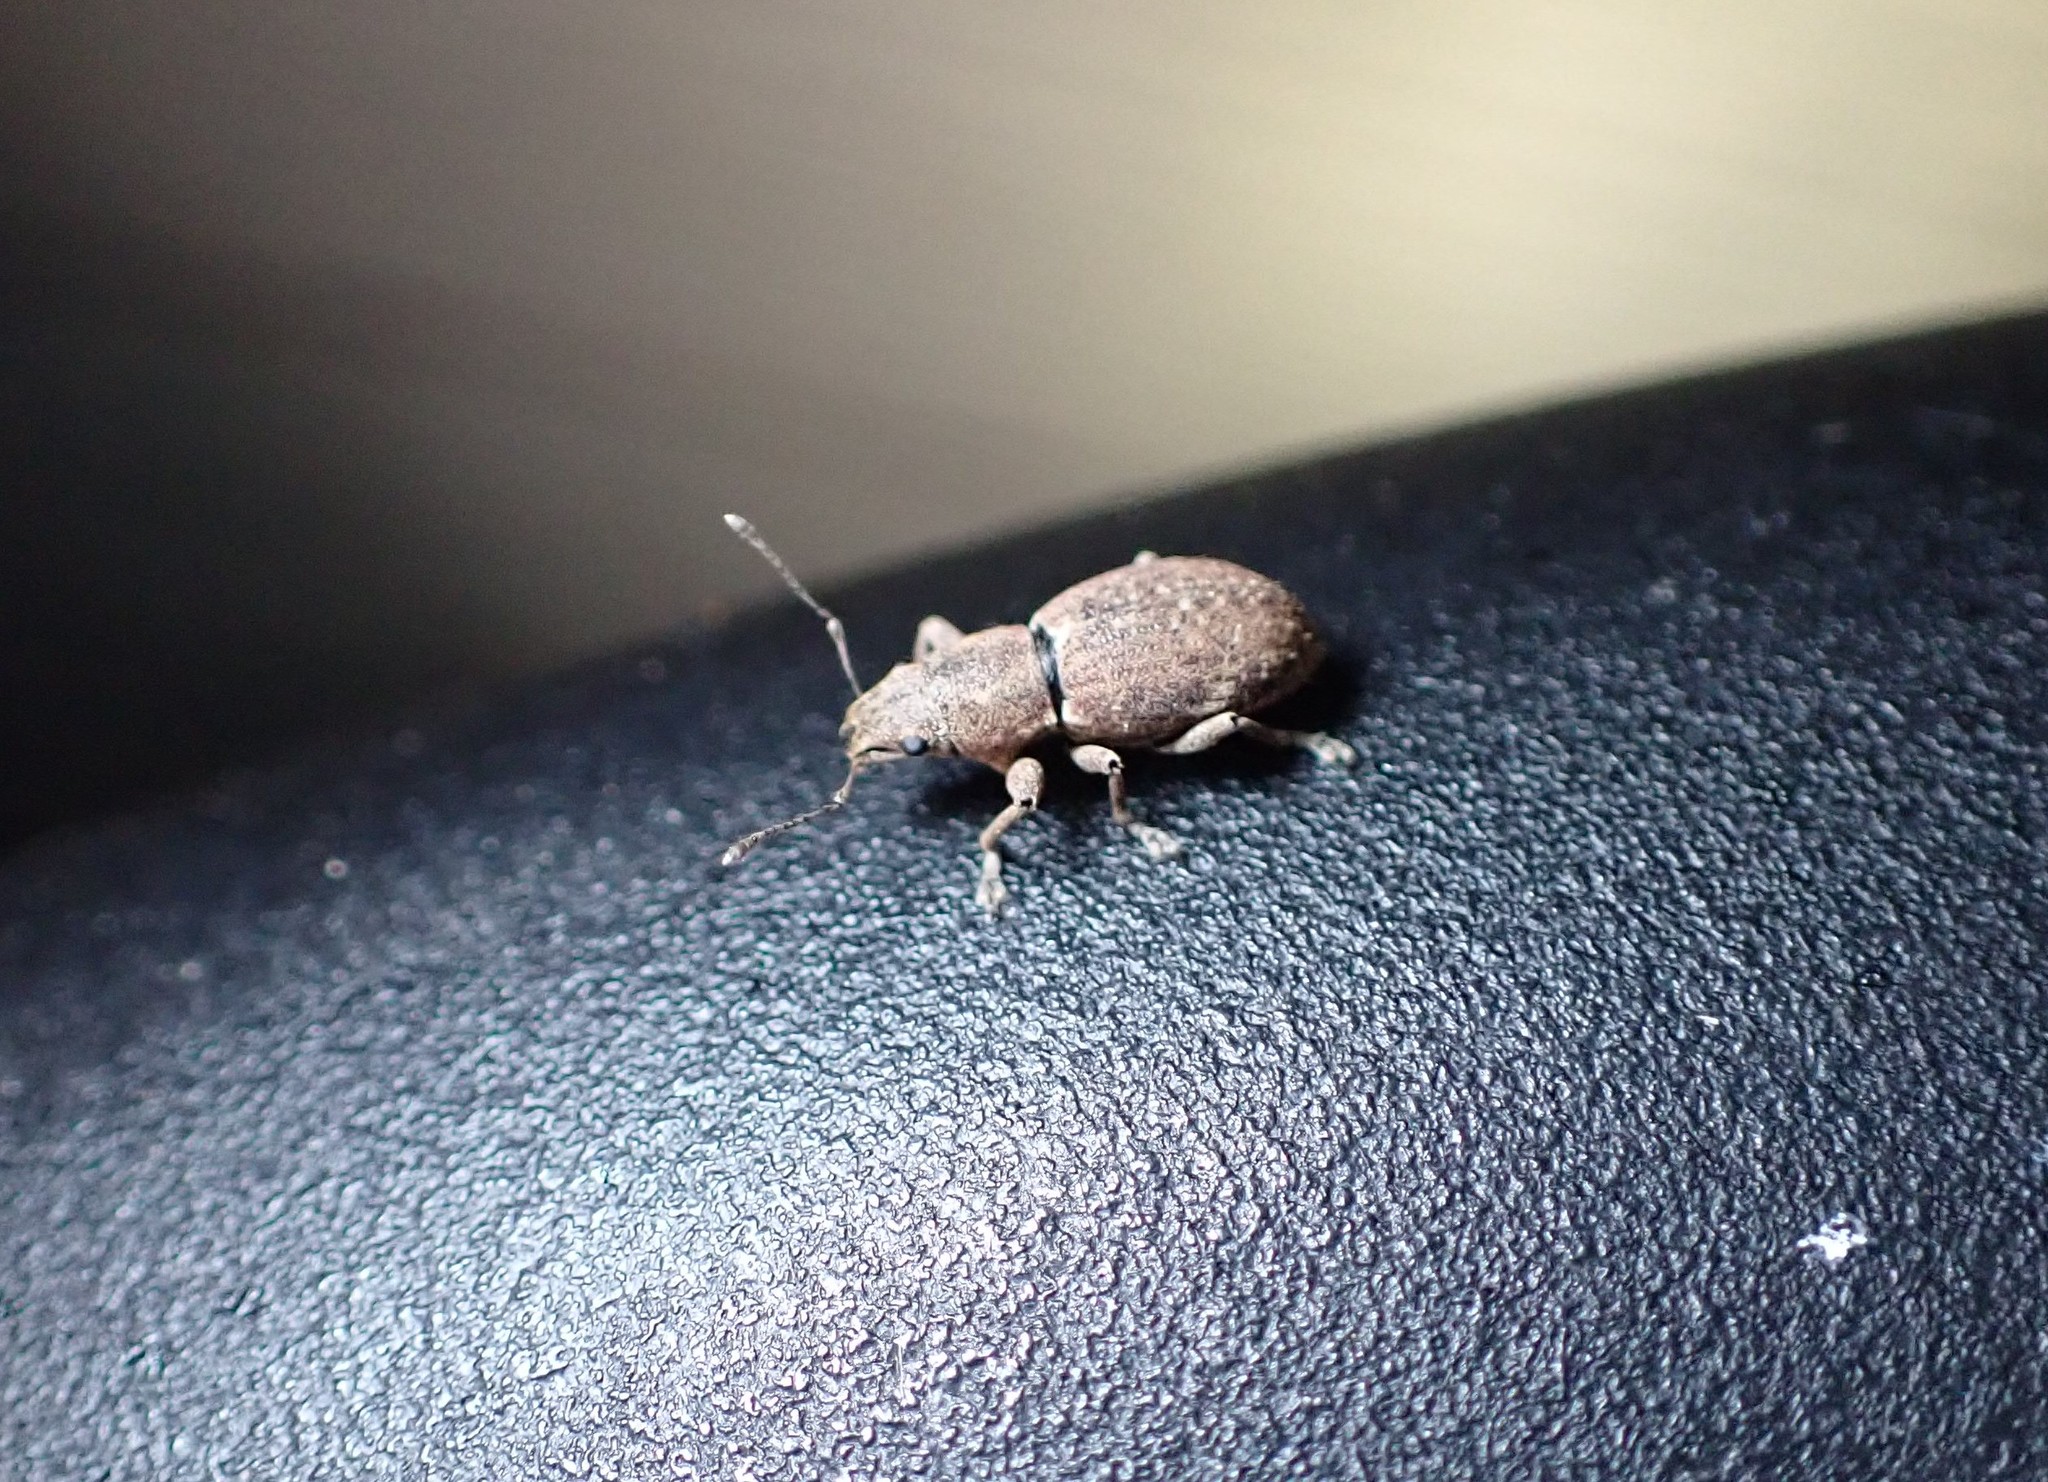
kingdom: Animalia
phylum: Arthropoda
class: Insecta
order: Coleoptera
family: Curculionidae
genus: Naupactus
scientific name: Naupactus cervinus
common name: Fuller rose beetle
